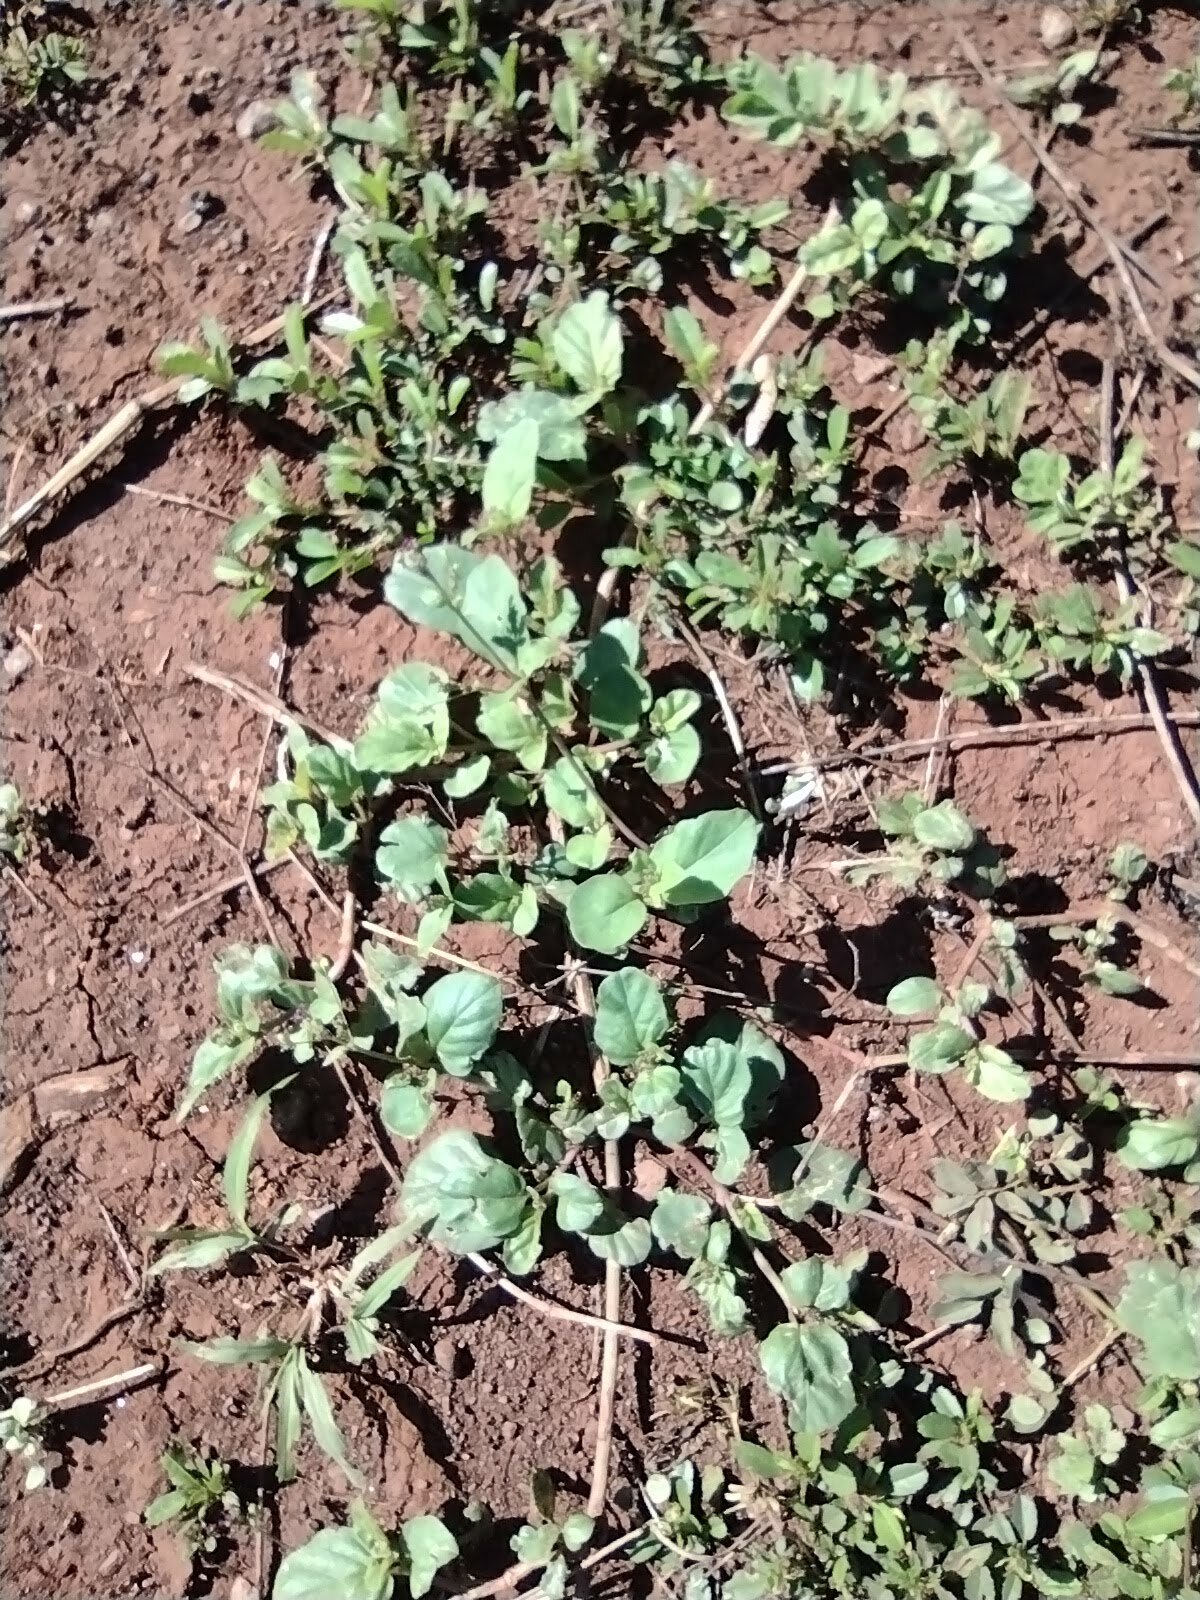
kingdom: Plantae
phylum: Tracheophyta
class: Magnoliopsida
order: Caryophyllales
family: Nyctaginaceae
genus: Boerhavia
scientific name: Boerhavia diffusa
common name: Red spiderling
